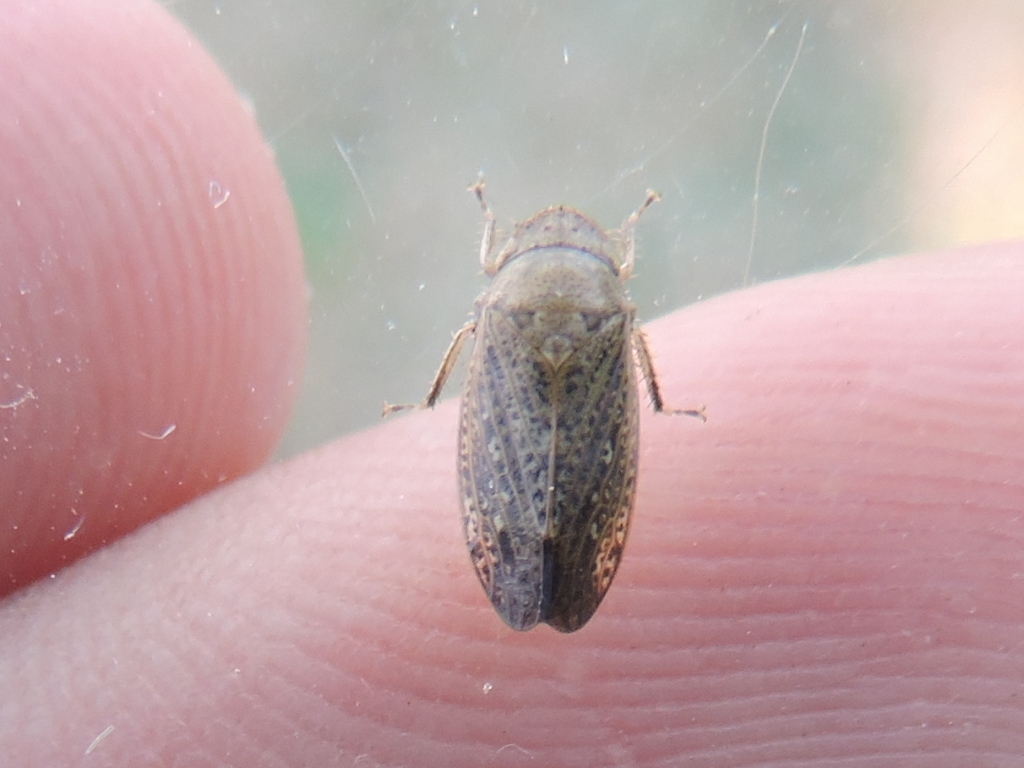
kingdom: Animalia
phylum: Arthropoda
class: Insecta
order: Hemiptera
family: Cicadellidae
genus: Negosiana
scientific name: Negosiana dualis
